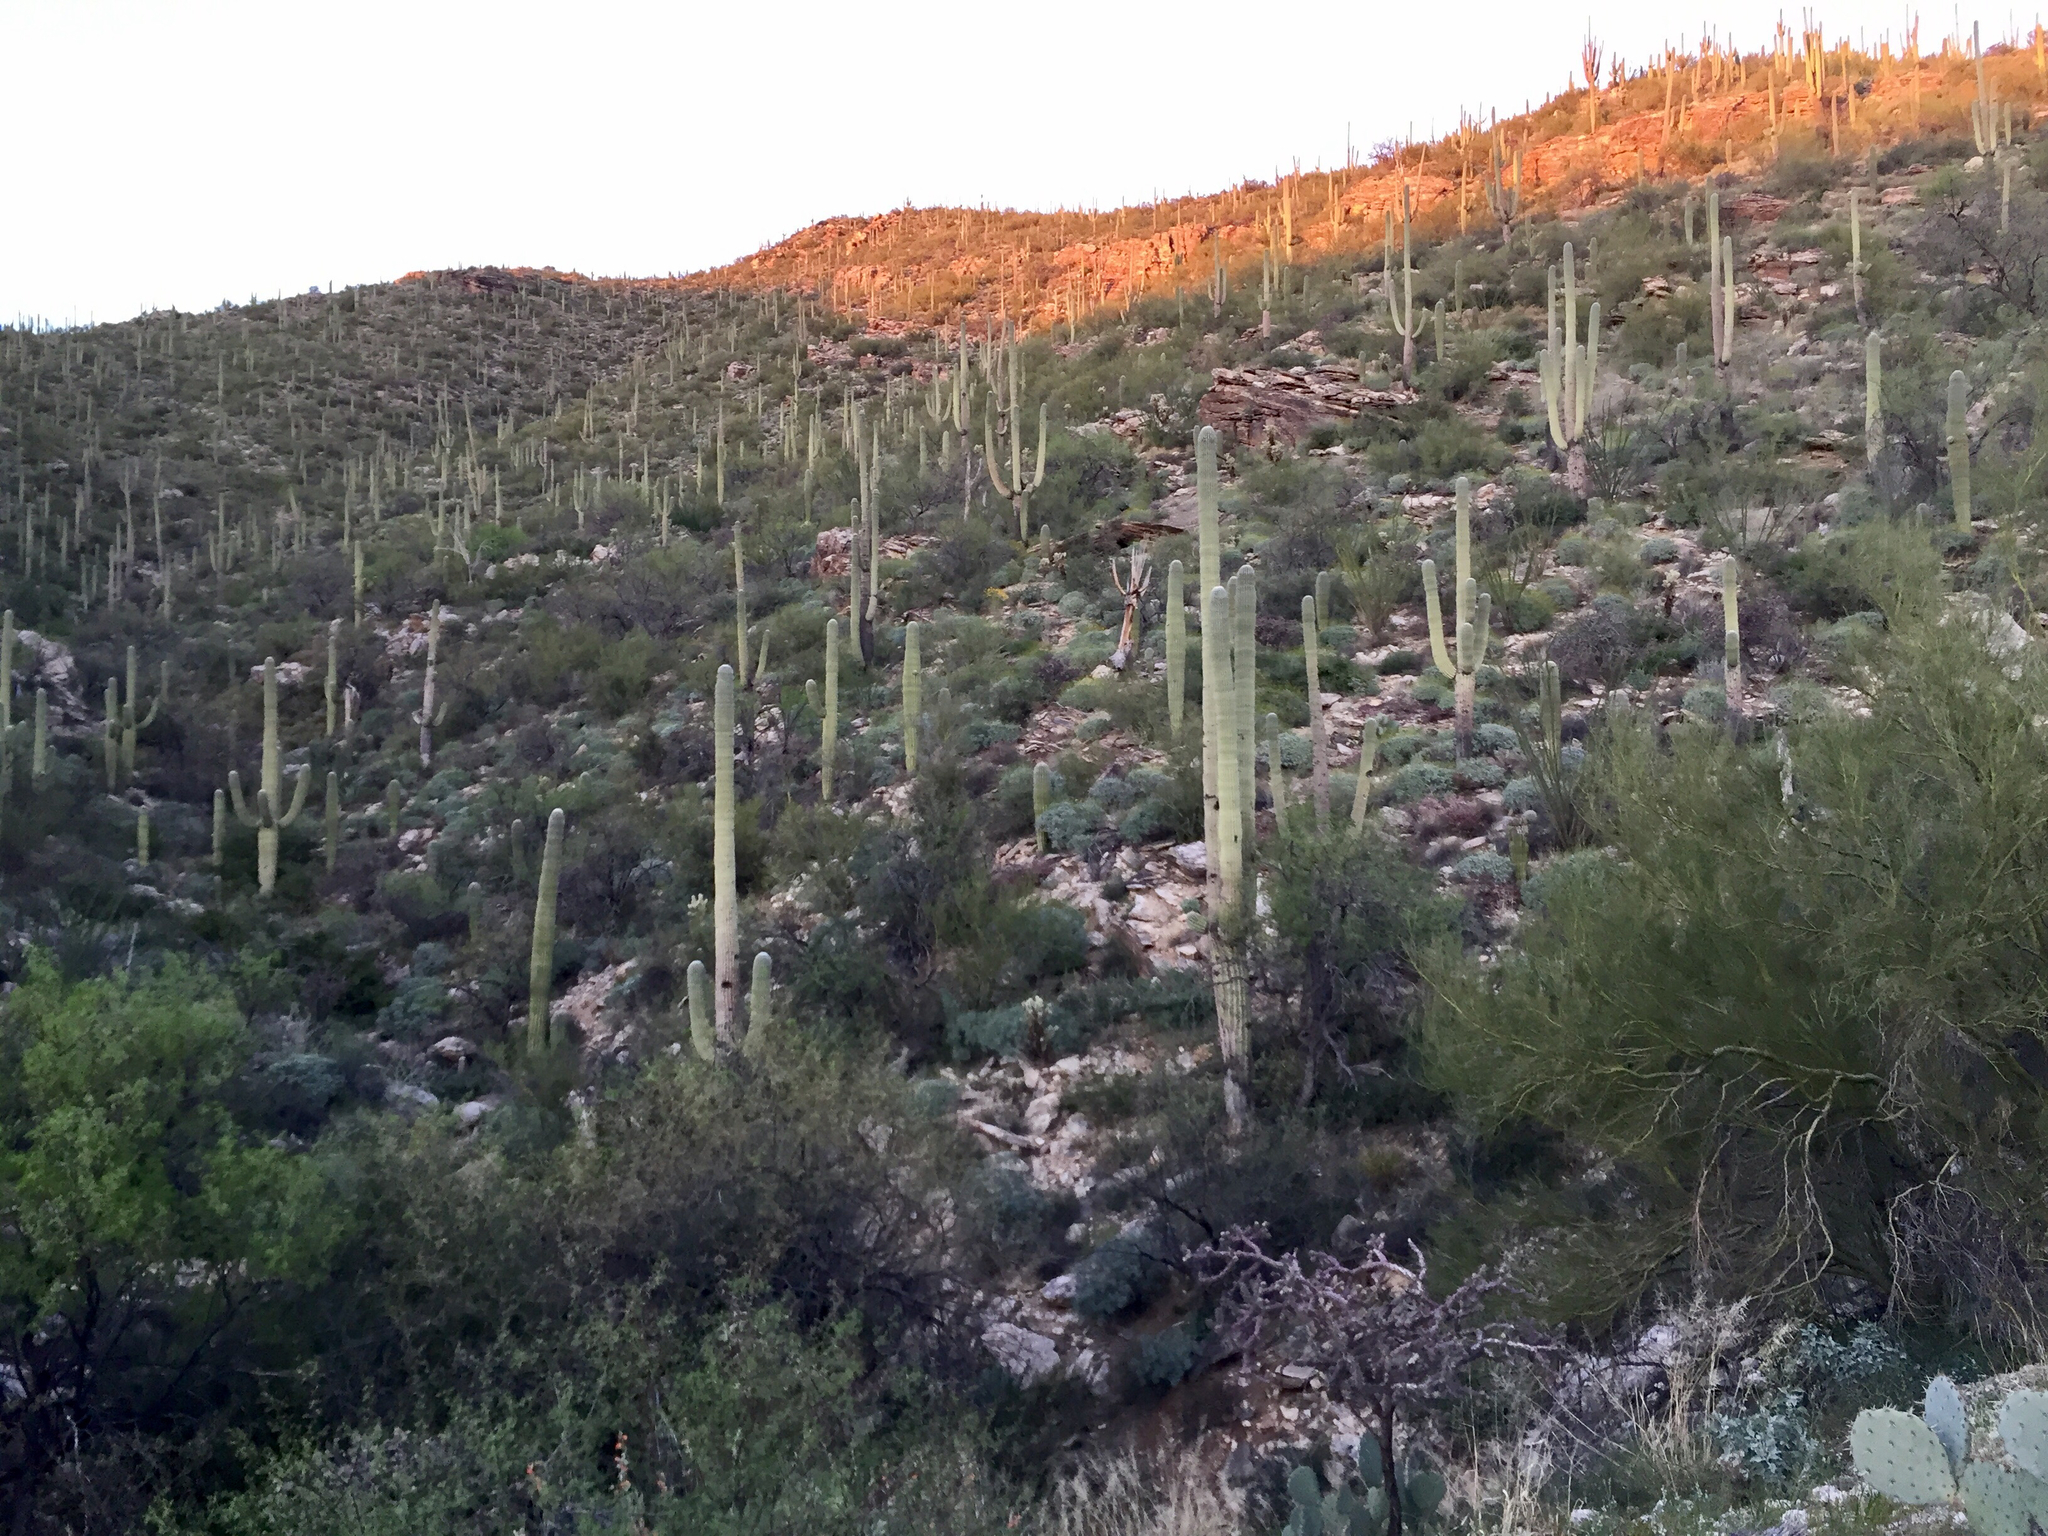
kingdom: Plantae
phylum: Tracheophyta
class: Magnoliopsida
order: Caryophyllales
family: Cactaceae
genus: Carnegiea
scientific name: Carnegiea gigantea
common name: Saguaro
